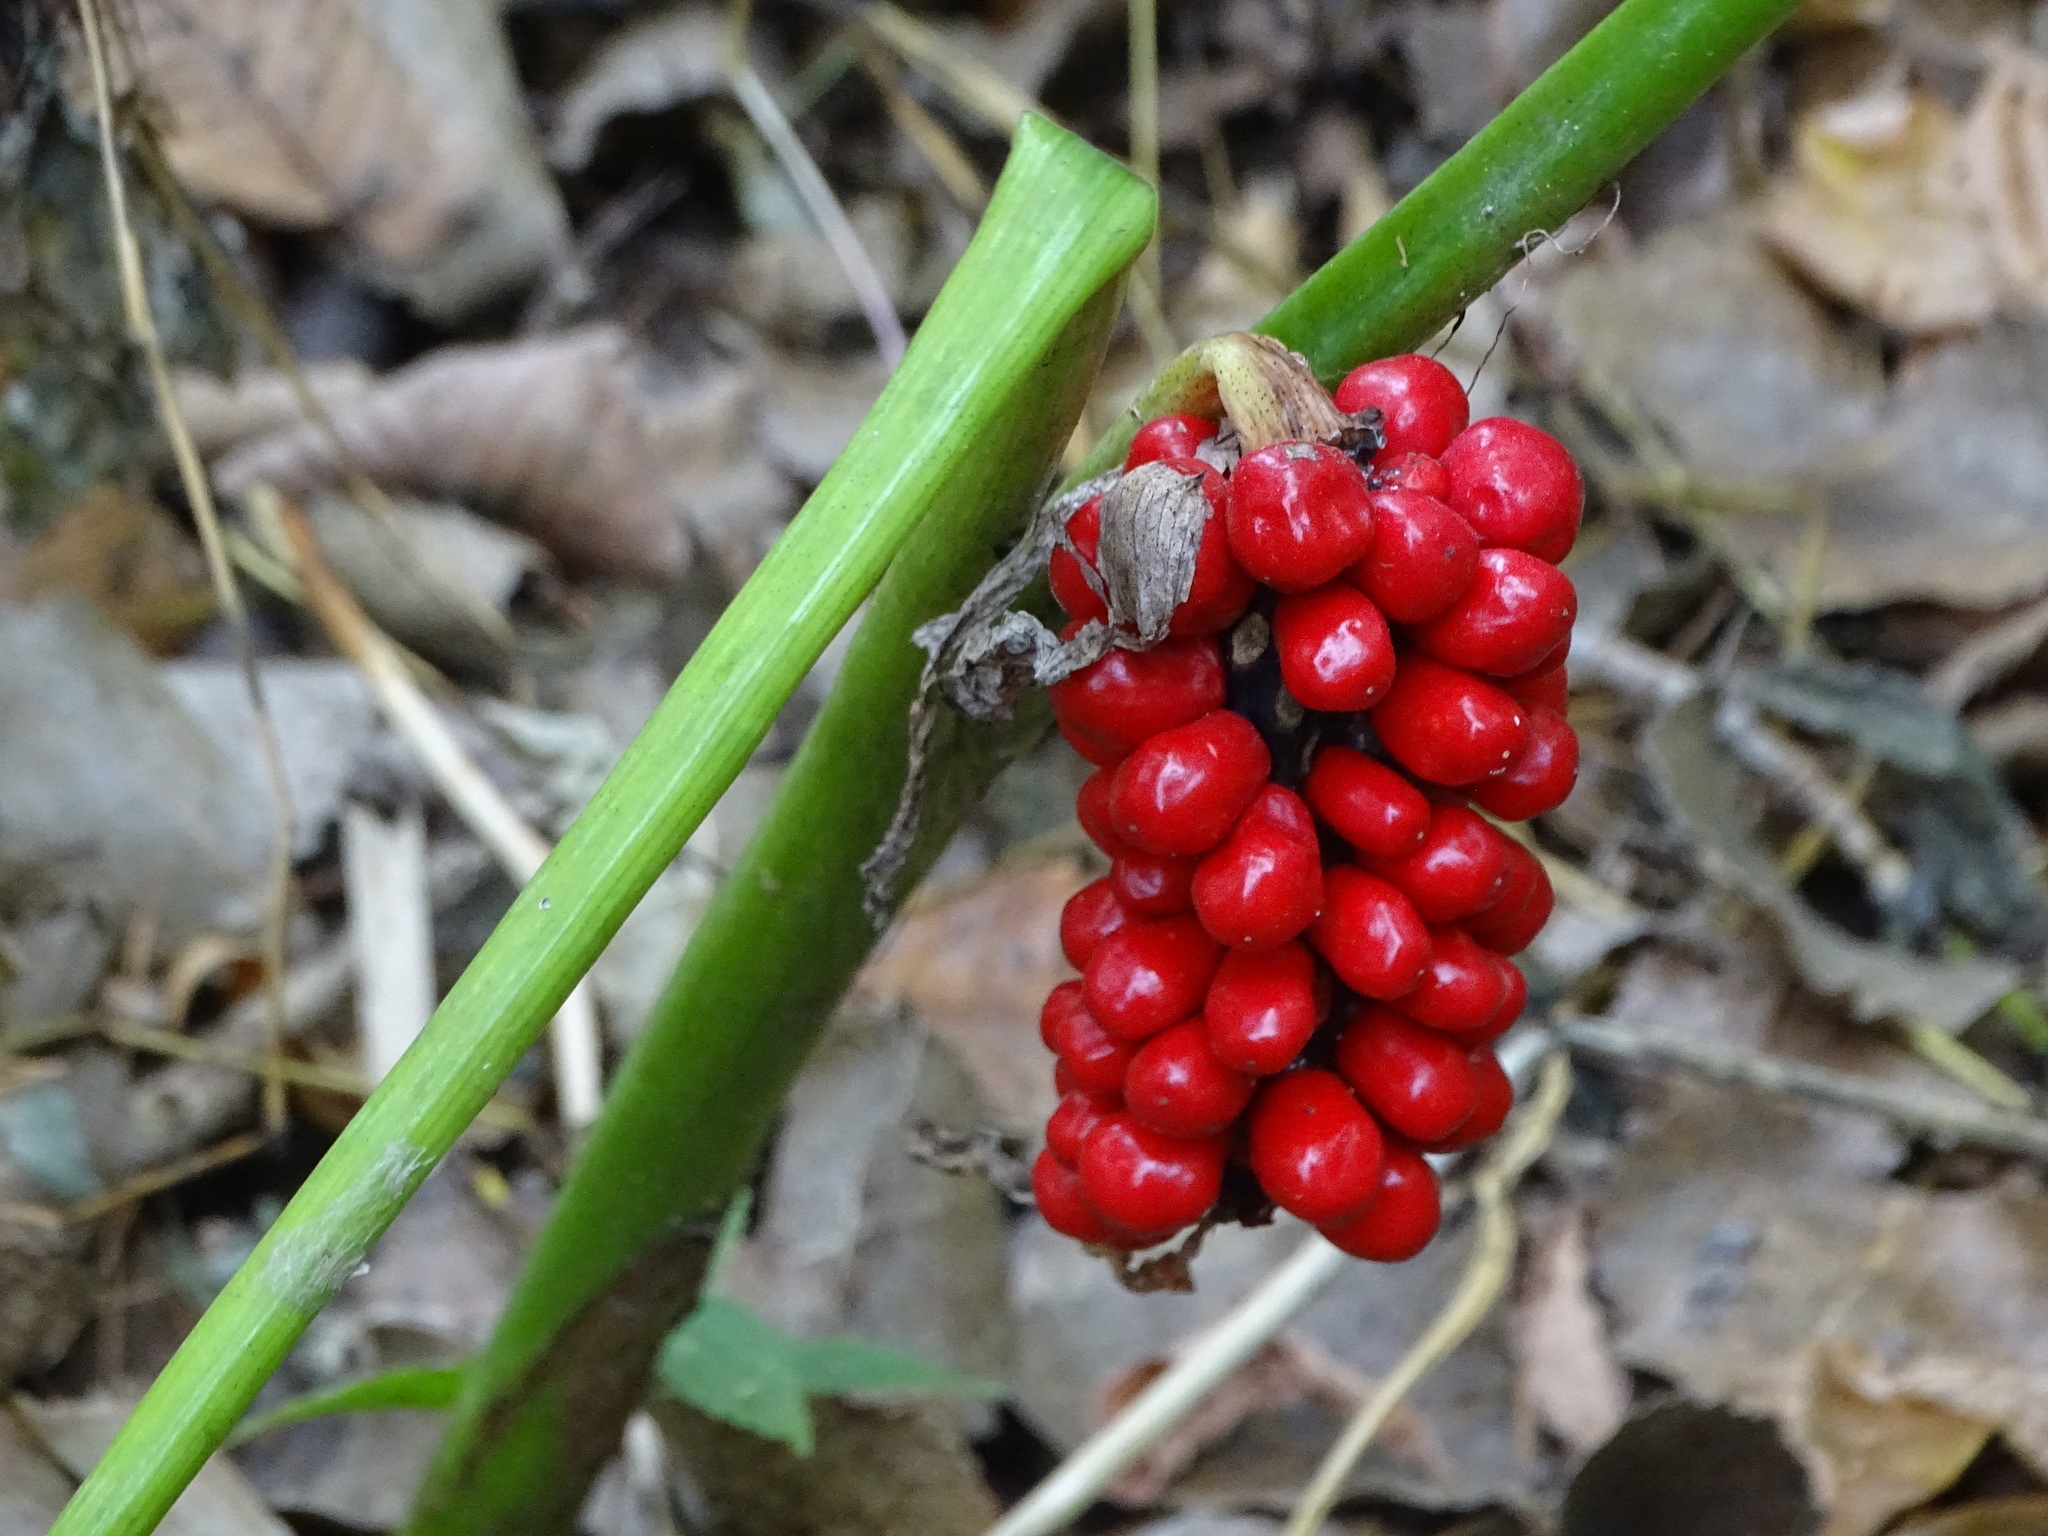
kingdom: Plantae
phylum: Tracheophyta
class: Liliopsida
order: Alismatales
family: Araceae
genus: Arisaema
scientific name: Arisaema triphyllum
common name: Jack-in-the-pulpit
